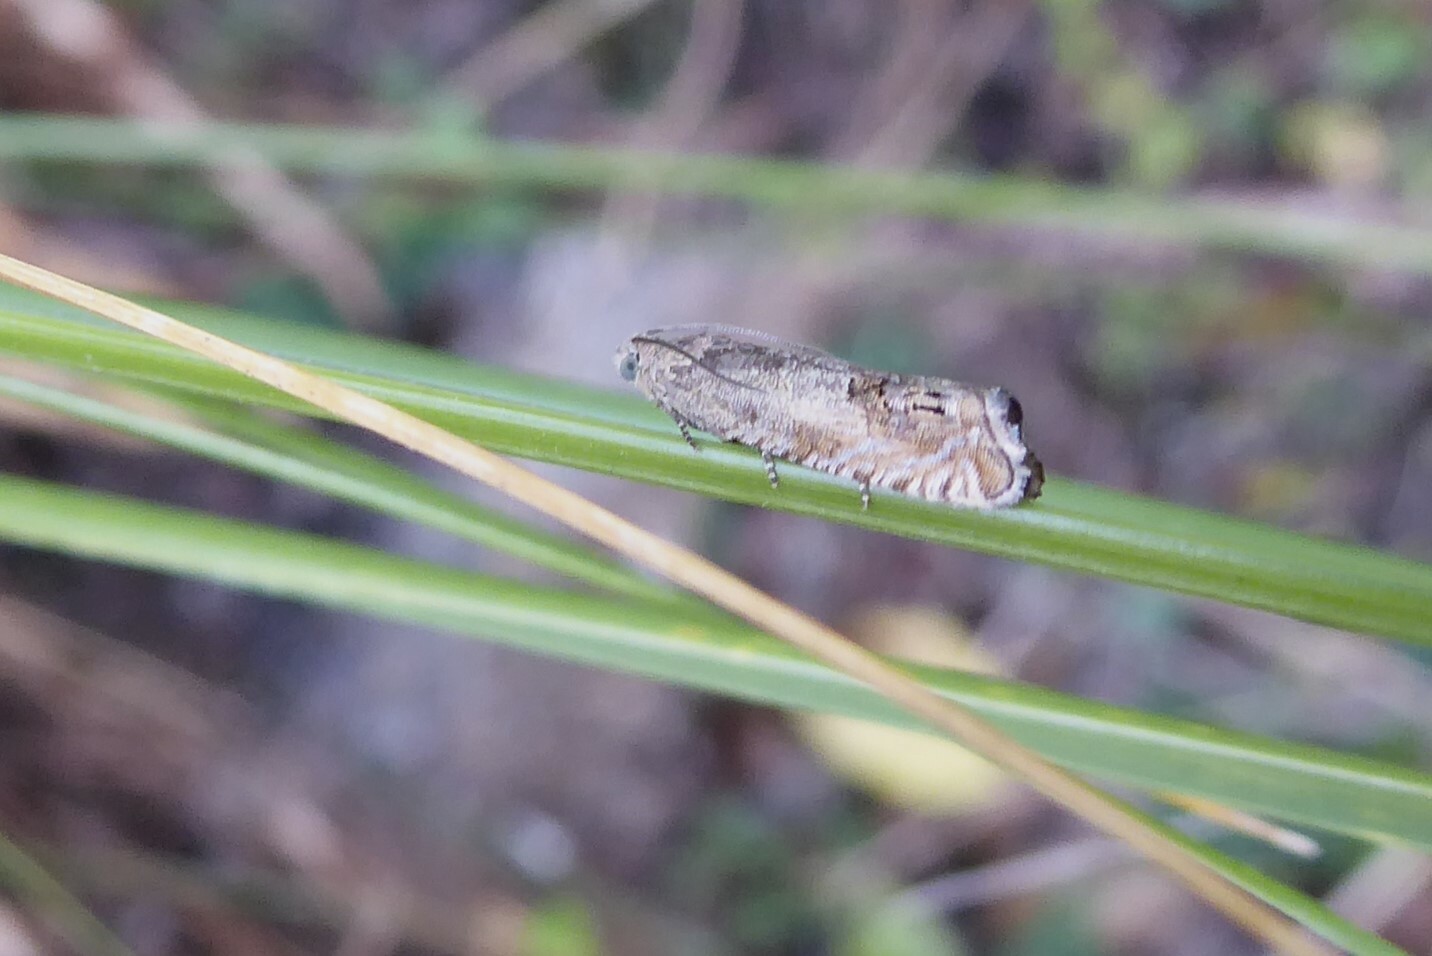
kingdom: Animalia
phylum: Arthropoda
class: Insecta
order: Lepidoptera
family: Tortricidae
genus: Cydia
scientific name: Cydia succedana
